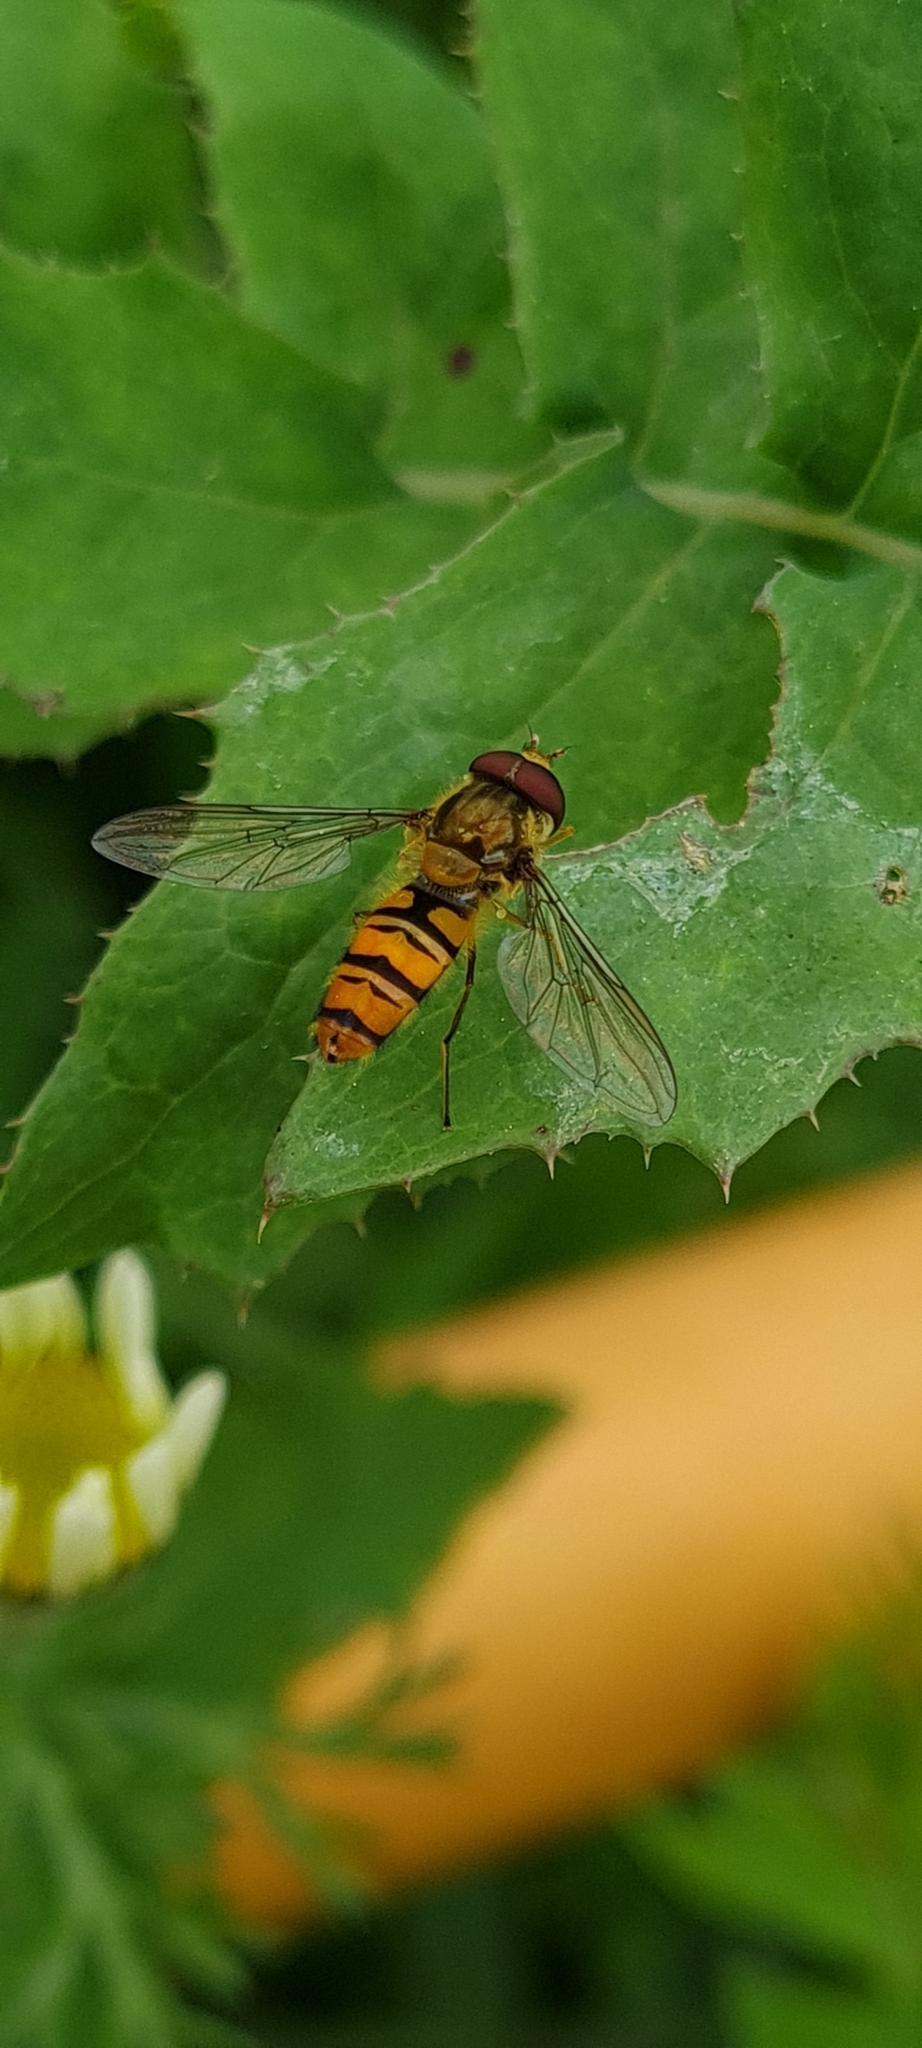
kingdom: Animalia
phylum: Arthropoda
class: Insecta
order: Diptera
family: Syrphidae
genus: Episyrphus
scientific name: Episyrphus balteatus
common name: Marmalade hoverfly
